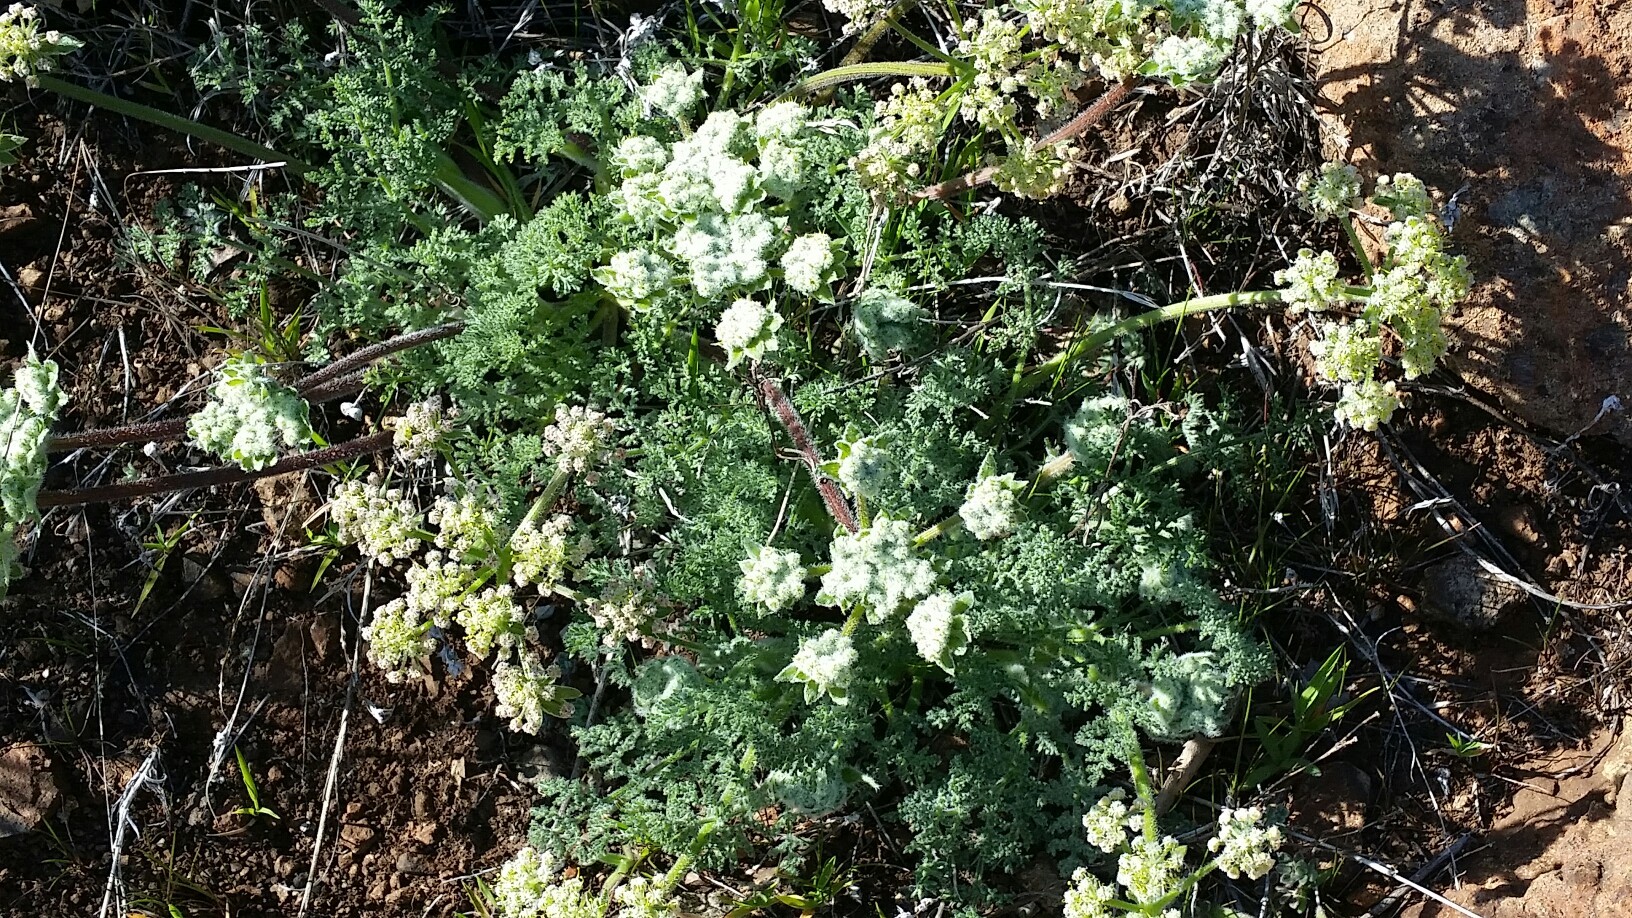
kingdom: Plantae
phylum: Tracheophyta
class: Magnoliopsida
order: Apiales
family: Apiaceae
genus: Lomatium
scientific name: Lomatium dasycarpum
